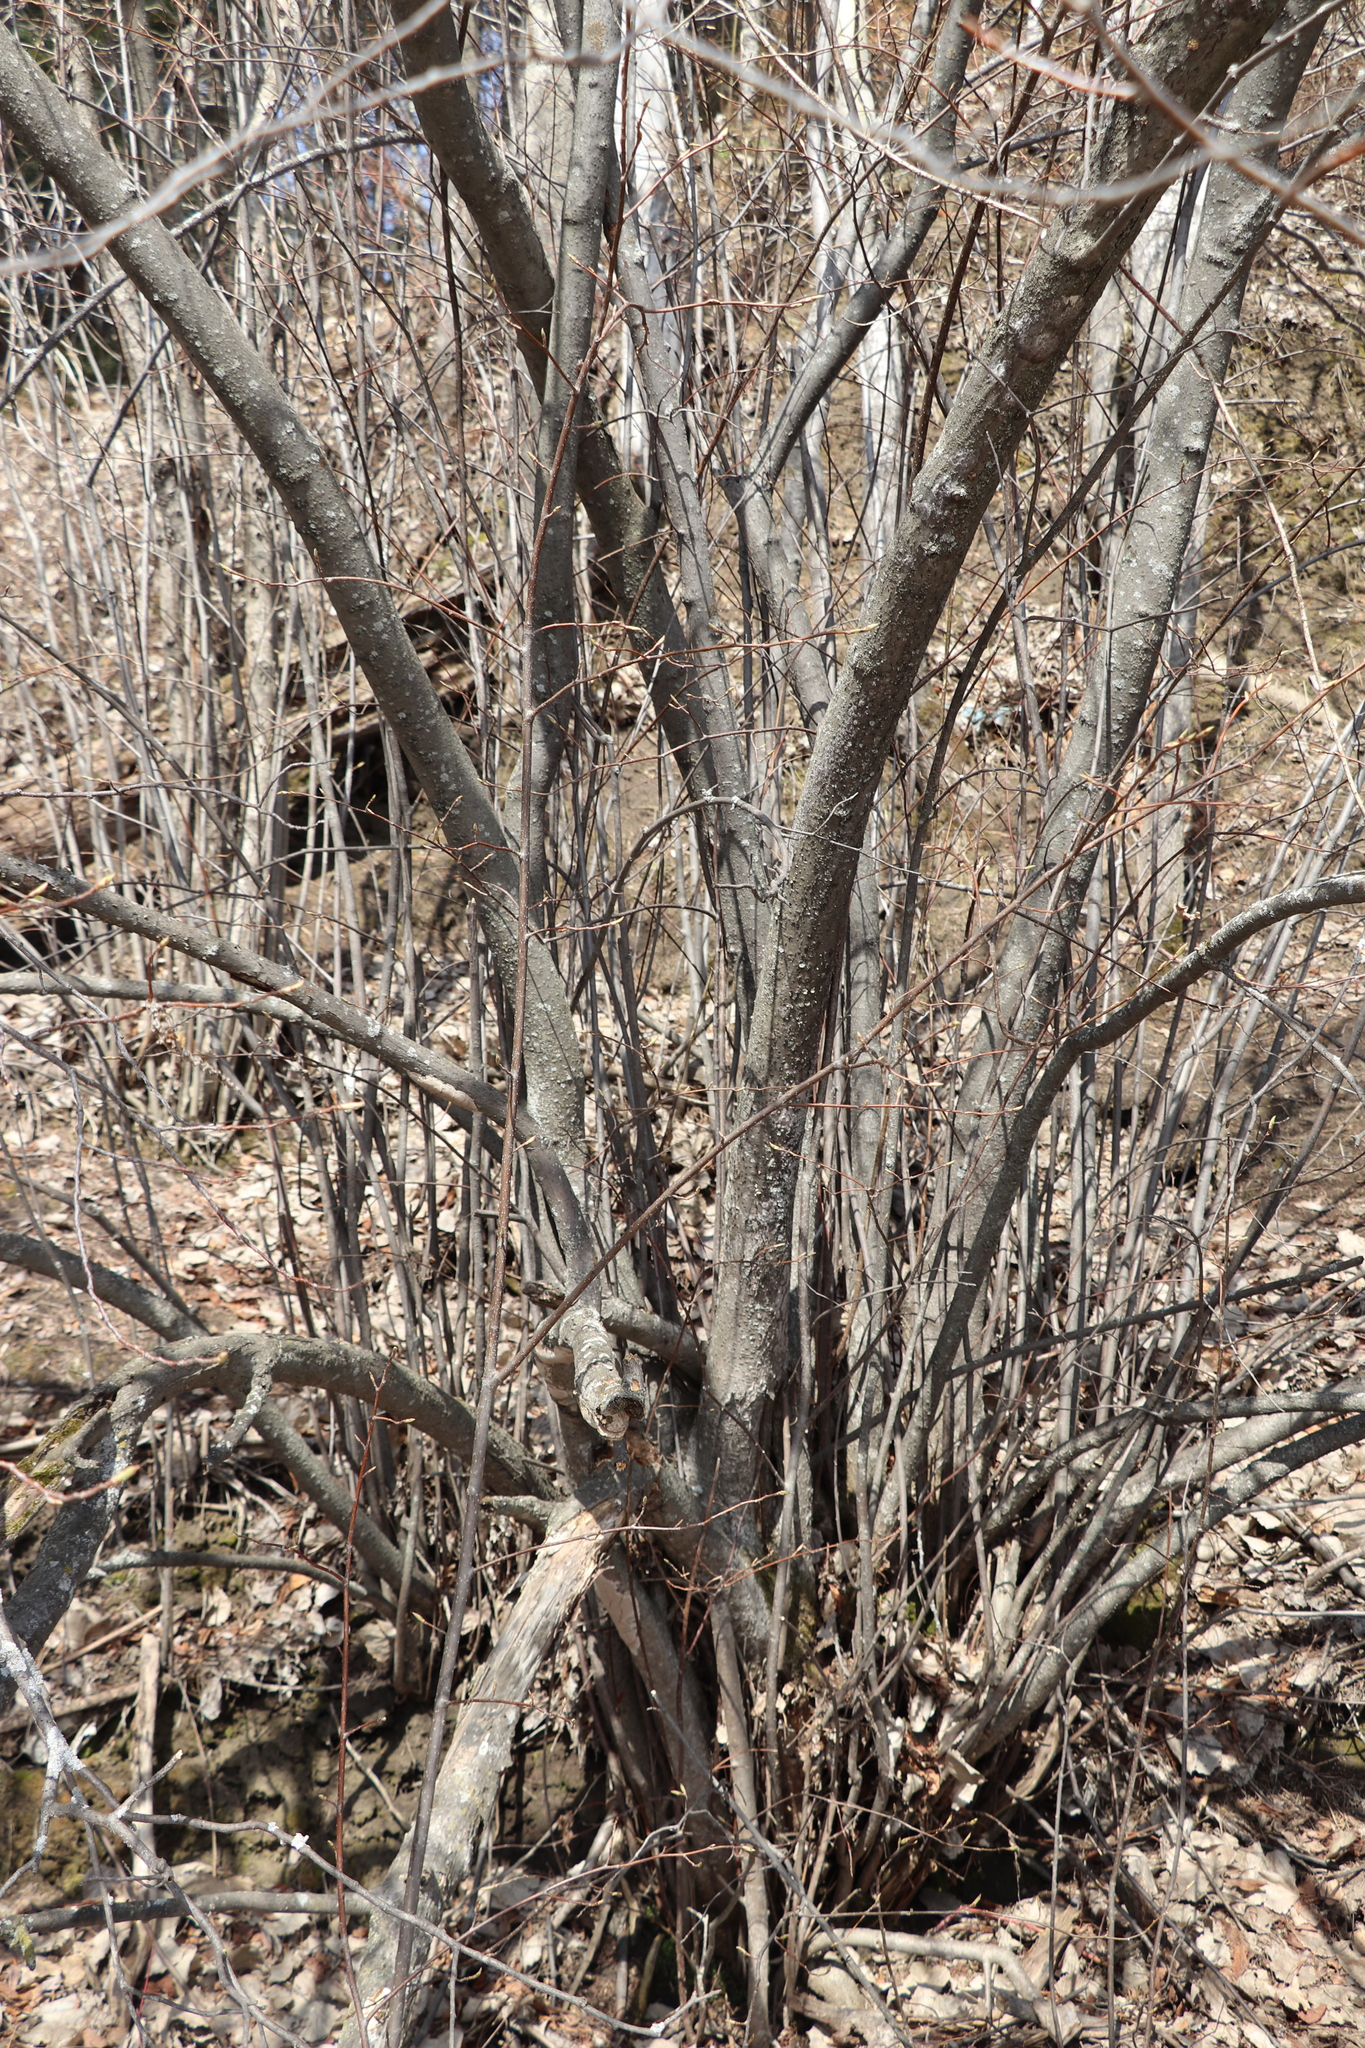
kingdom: Plantae
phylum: Tracheophyta
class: Magnoliopsida
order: Rosales
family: Rosaceae
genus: Prunus
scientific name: Prunus padus
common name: Bird cherry
